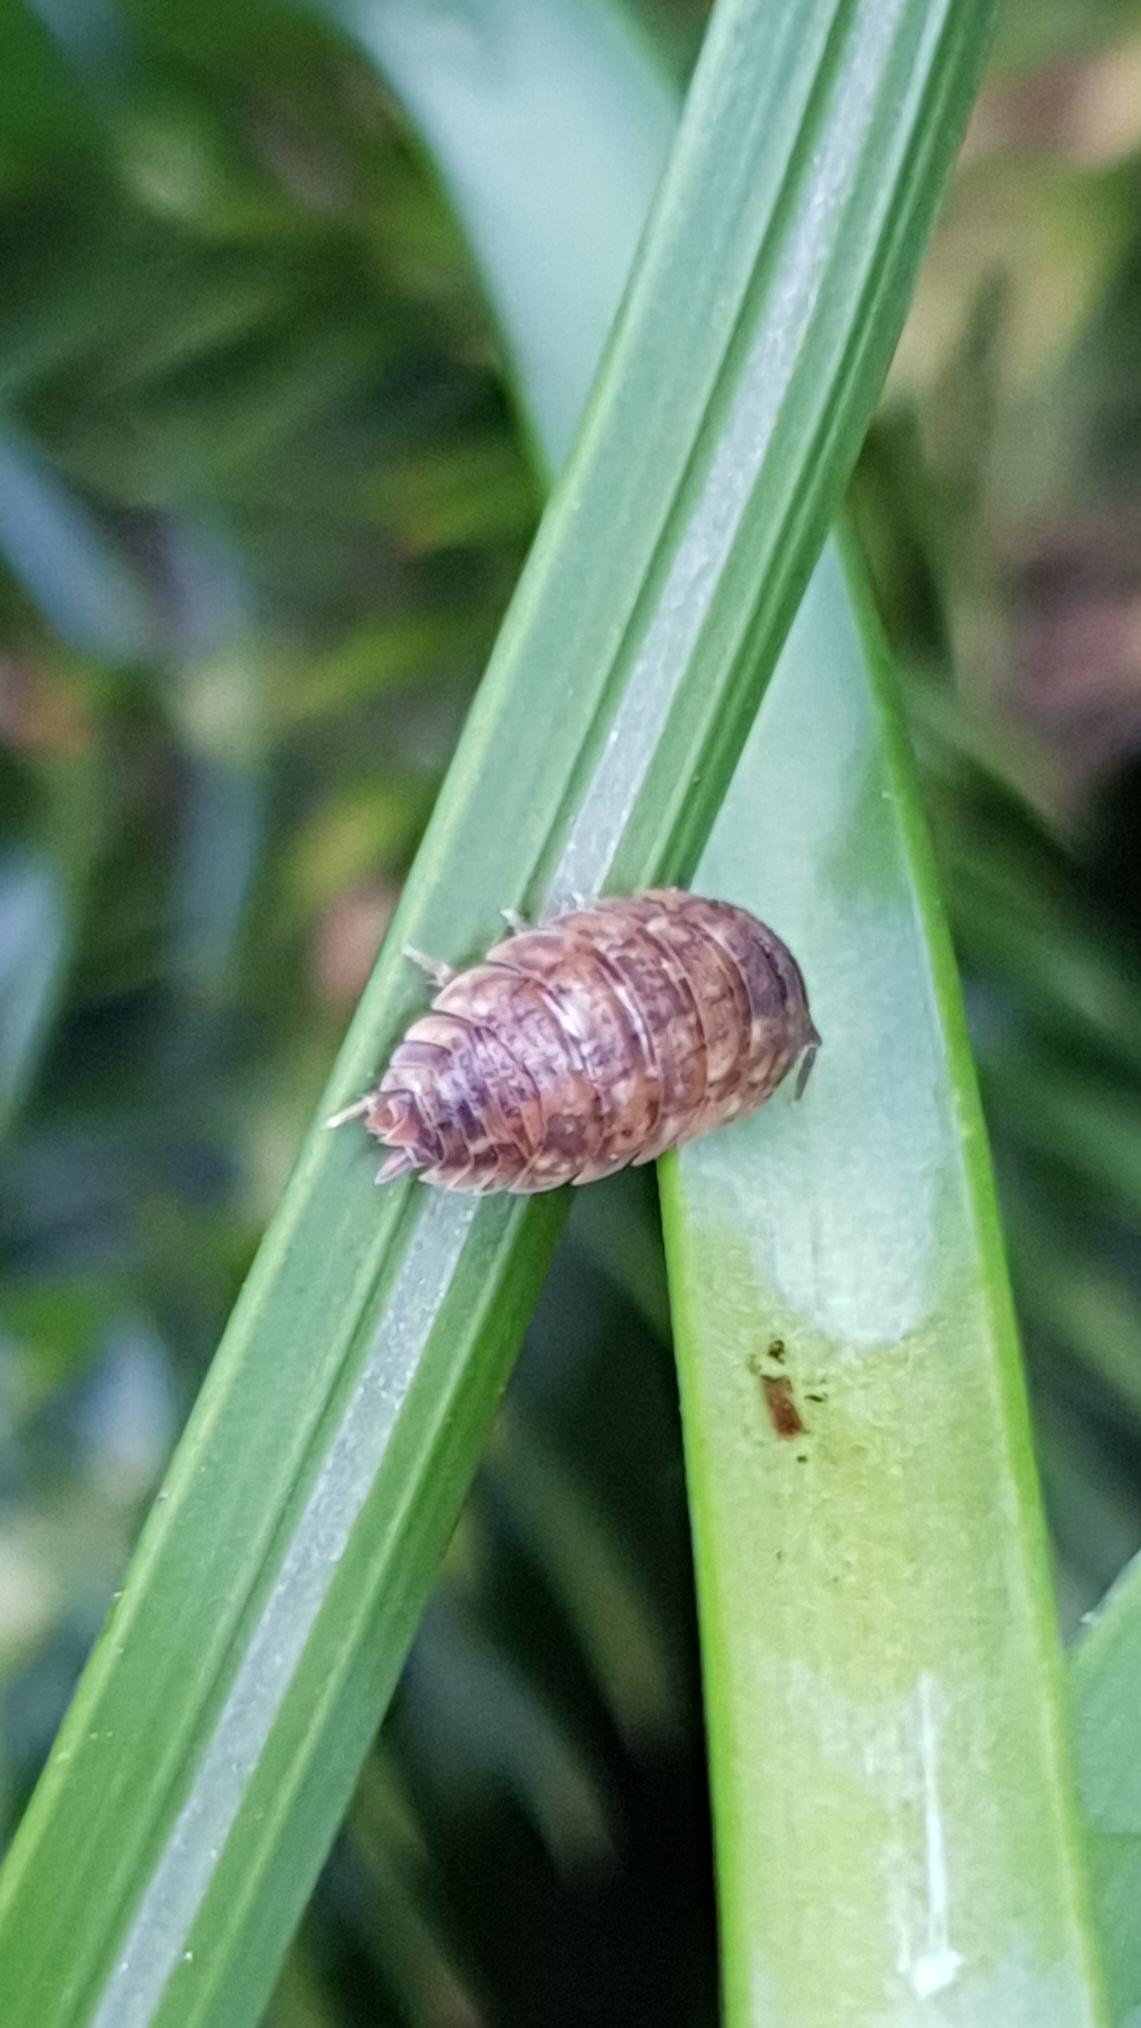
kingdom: Animalia
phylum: Arthropoda
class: Malacostraca
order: Isopoda
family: Porcellionidae
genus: Porcellio
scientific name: Porcellio scaber
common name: Common rough woodlouse
